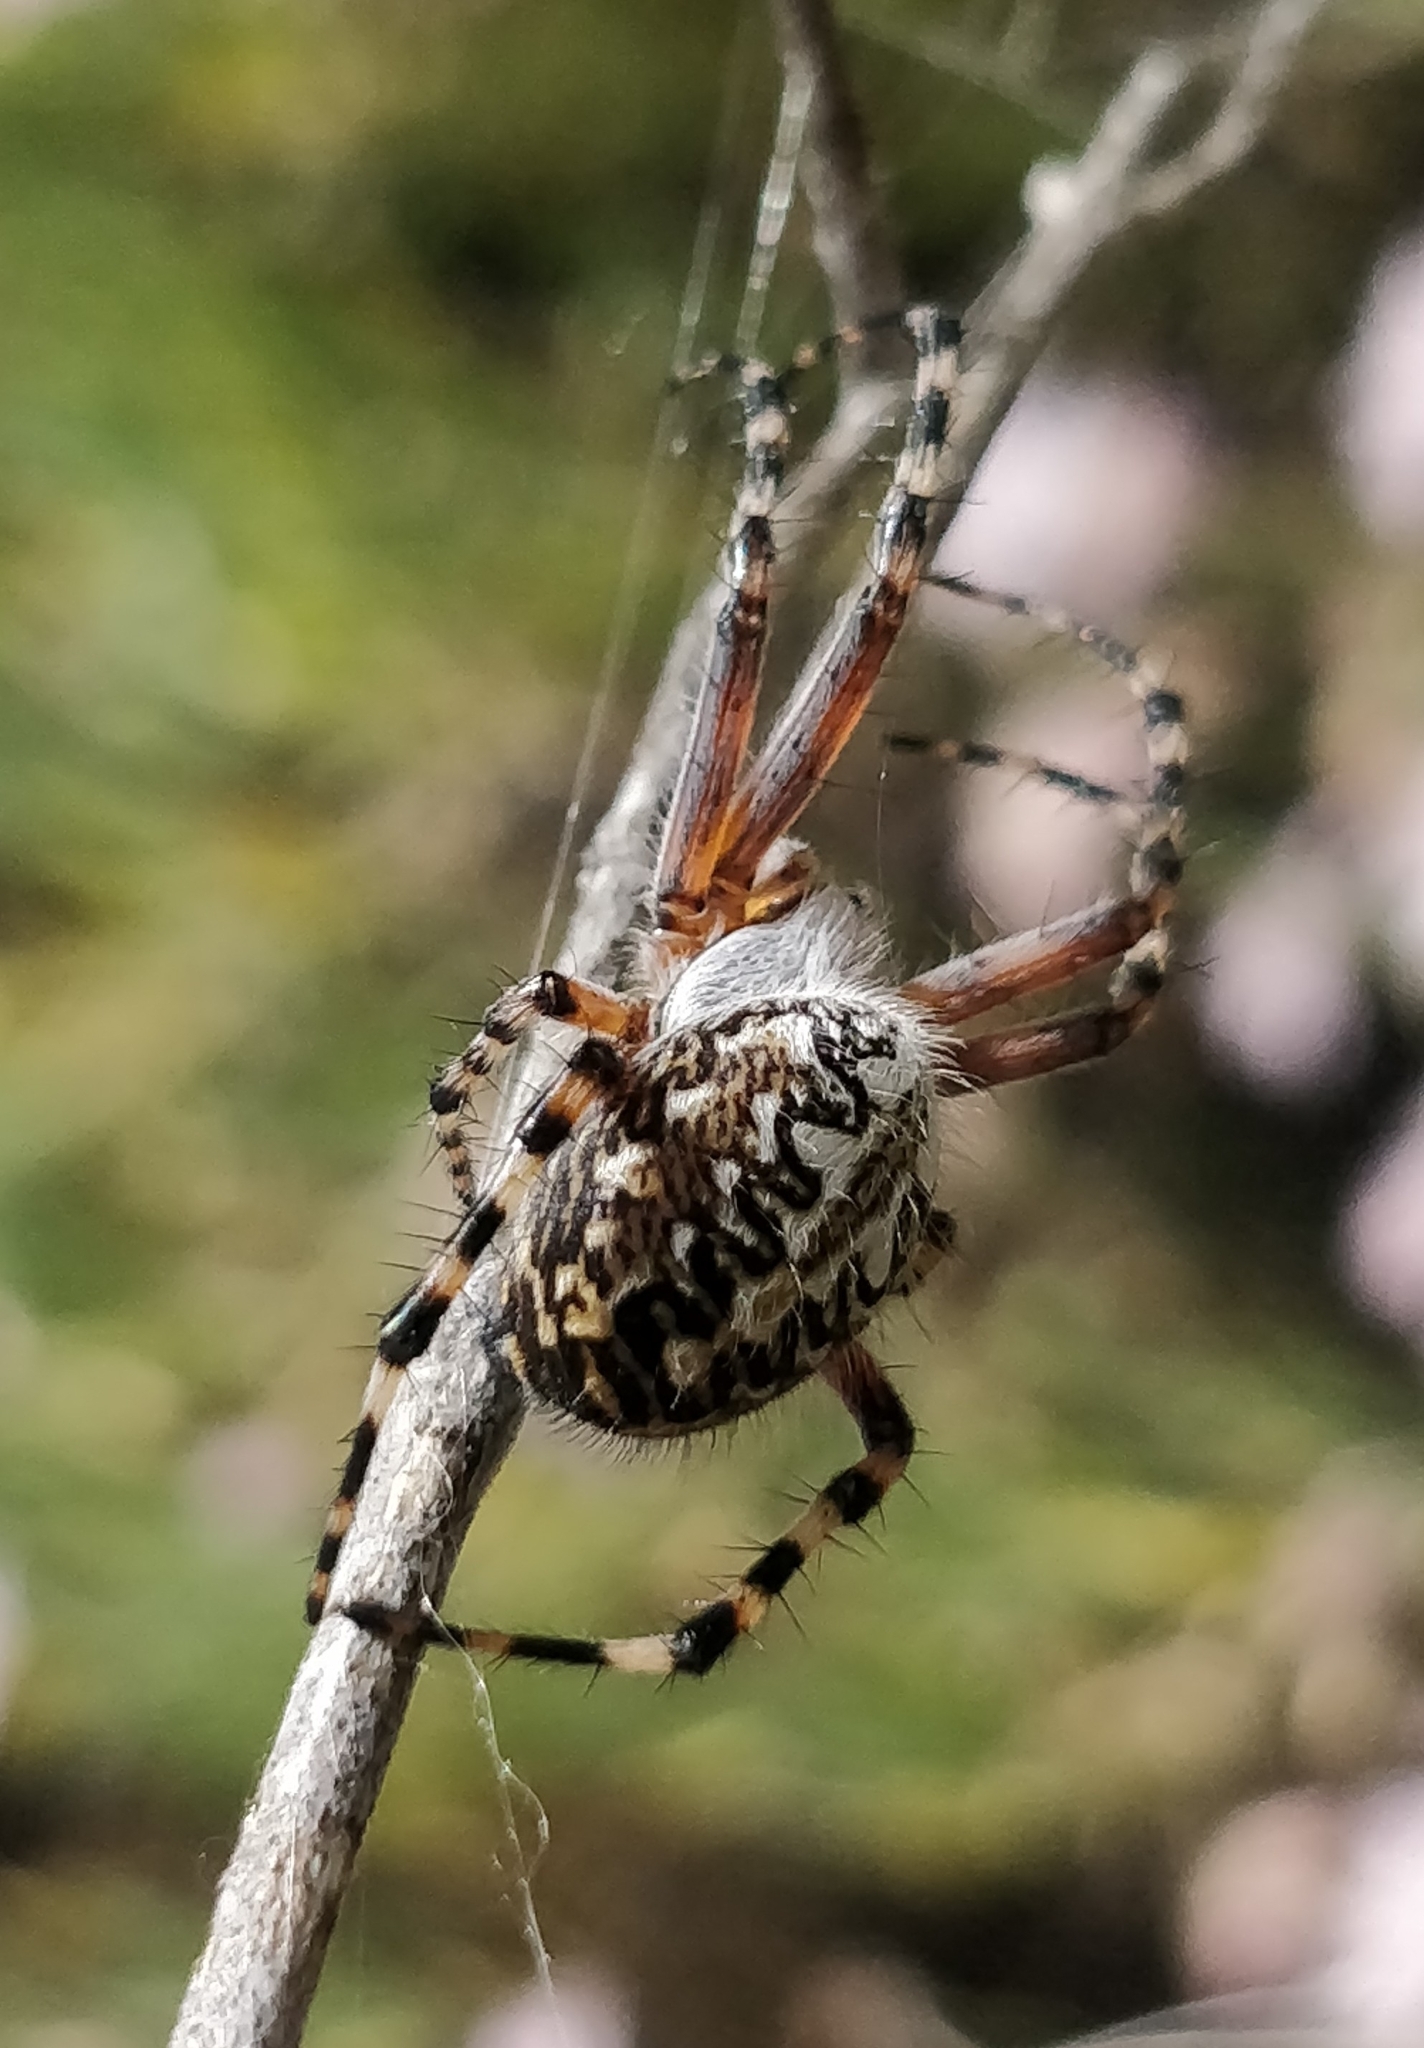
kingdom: Animalia
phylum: Arthropoda
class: Arachnida
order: Araneae
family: Araneidae
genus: Araneus
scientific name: Araneus annulipes
